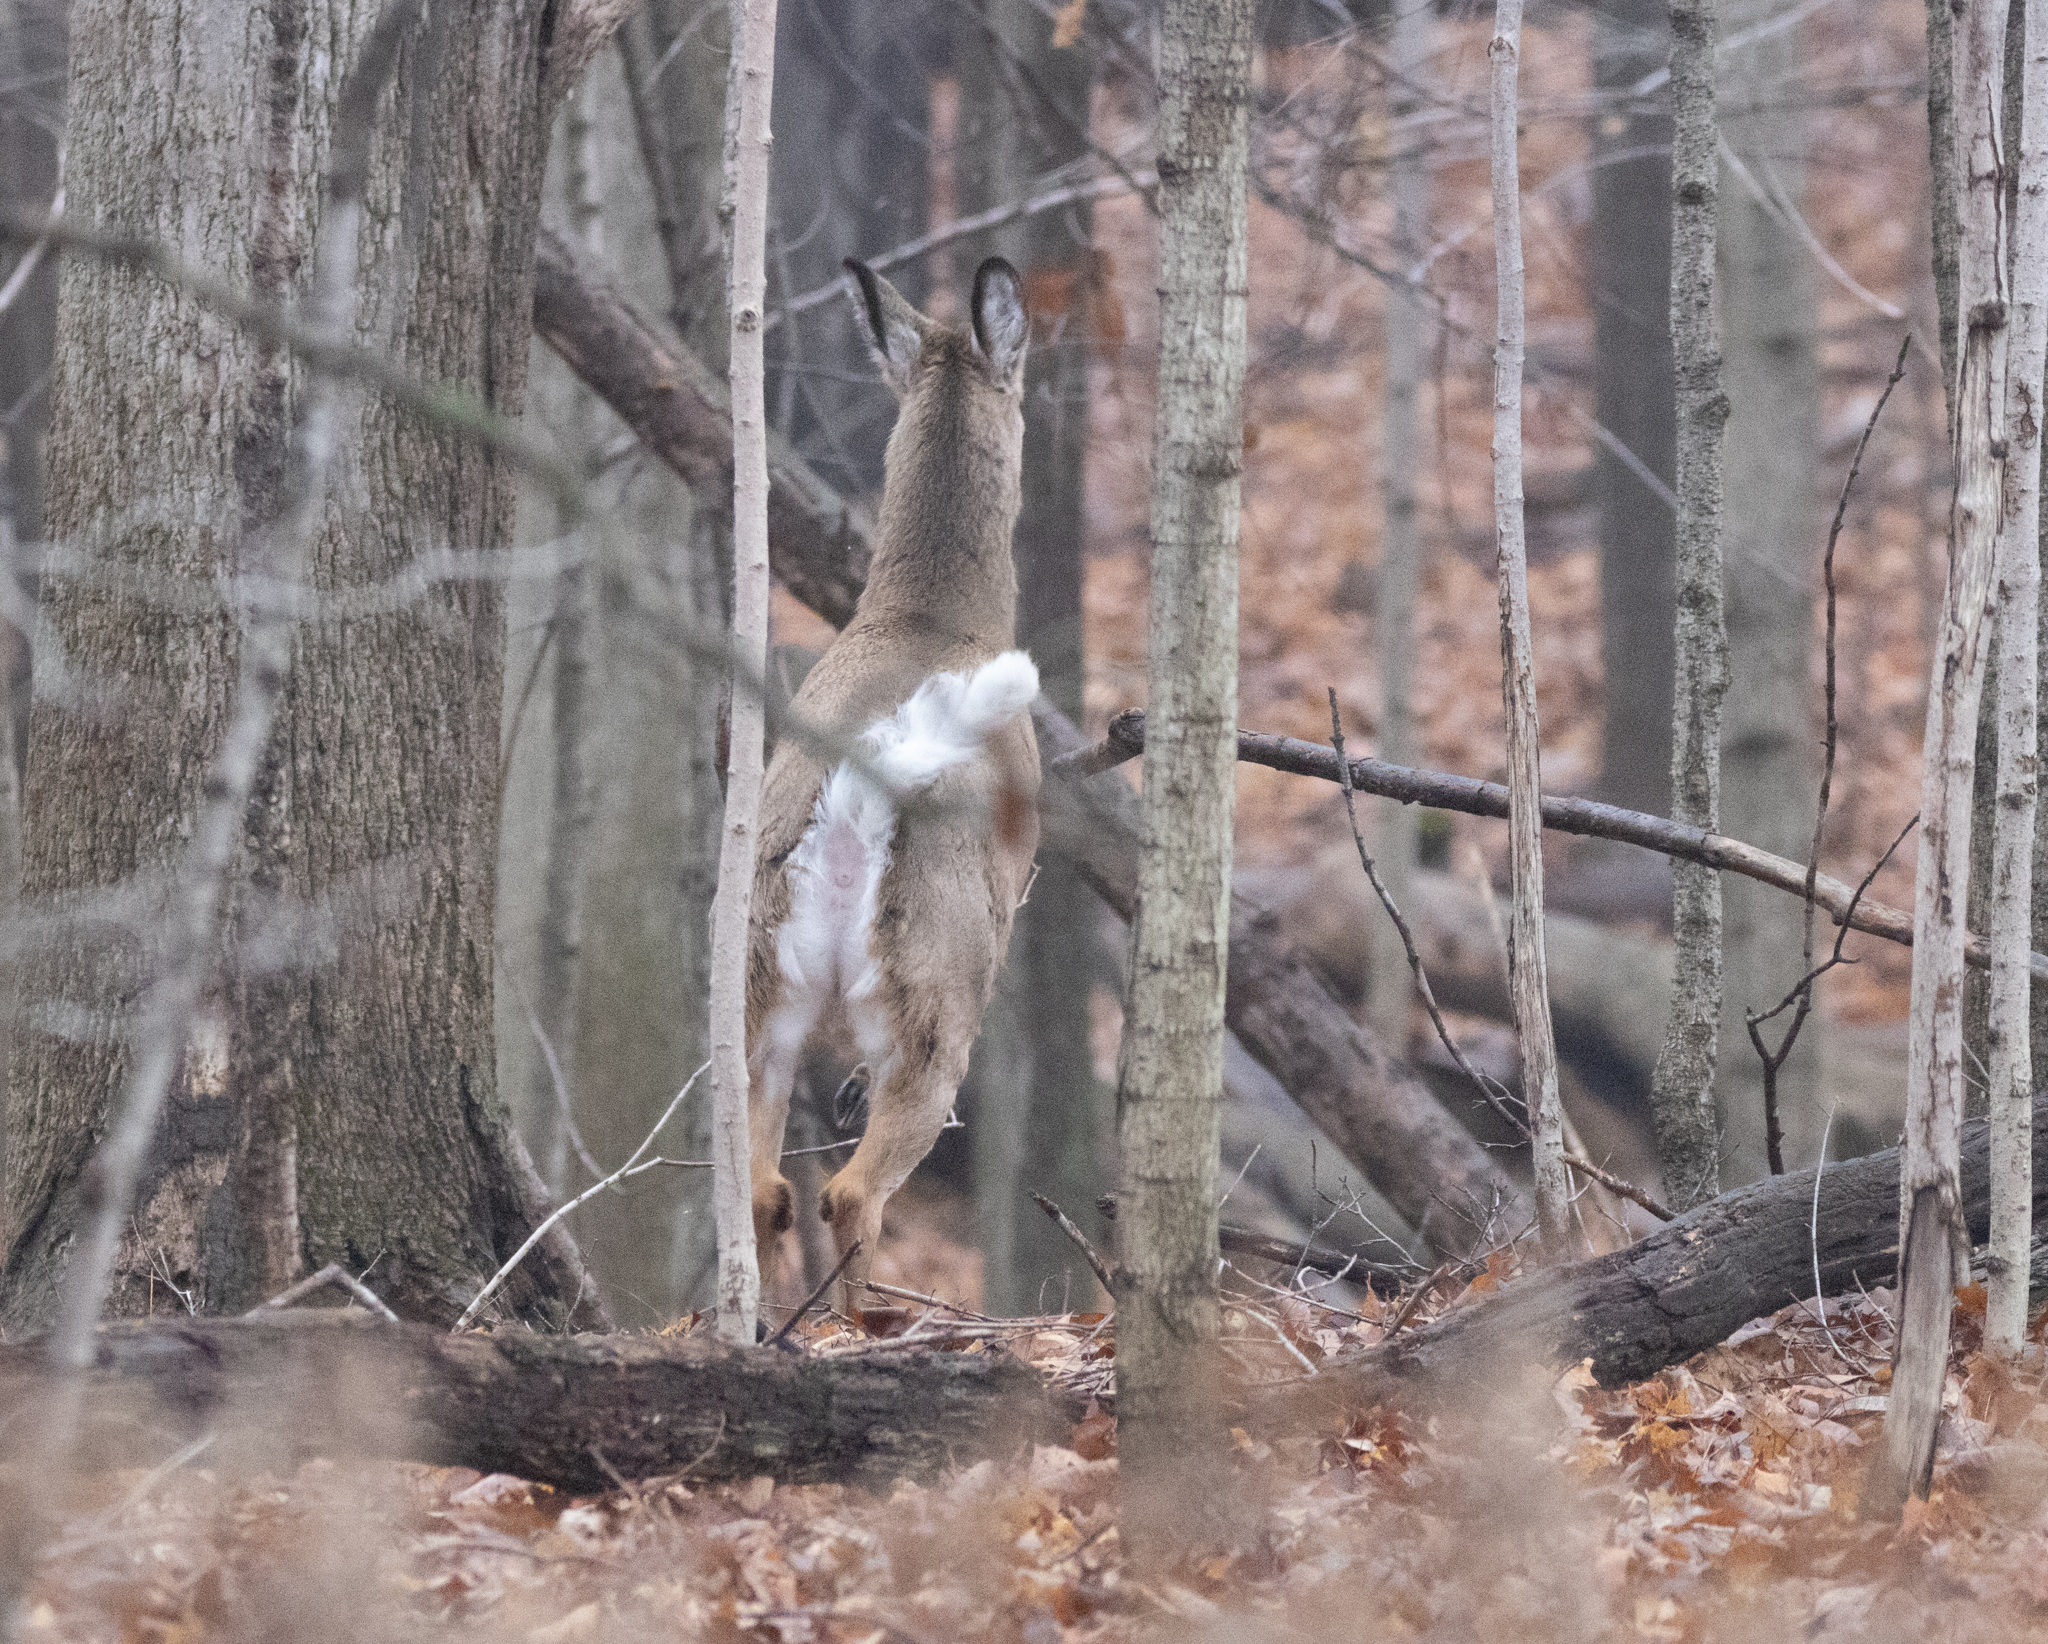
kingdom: Animalia
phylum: Chordata
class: Mammalia
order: Artiodactyla
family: Cervidae
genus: Odocoileus
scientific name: Odocoileus virginianus
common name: White-tailed deer
